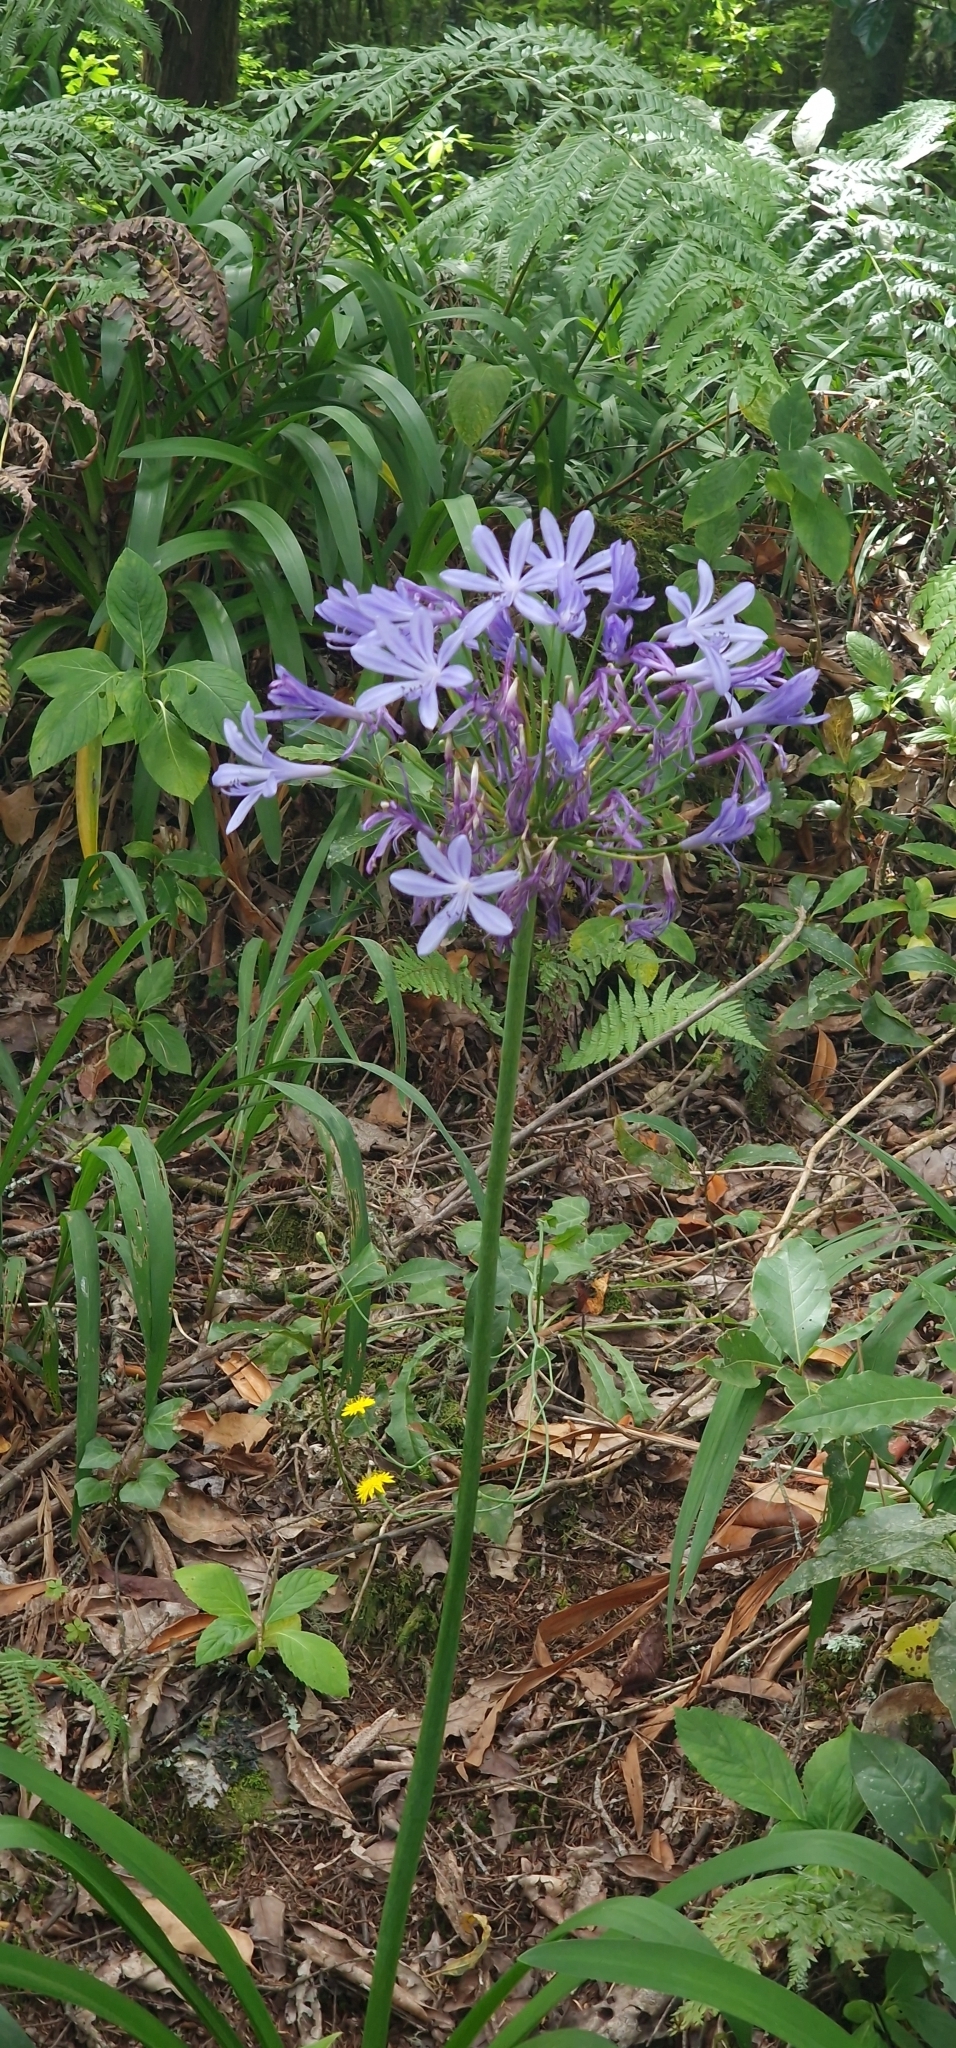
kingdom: Plantae
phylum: Tracheophyta
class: Liliopsida
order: Asparagales
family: Amaryllidaceae
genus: Agapanthus
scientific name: Agapanthus praecox
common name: African-lily
